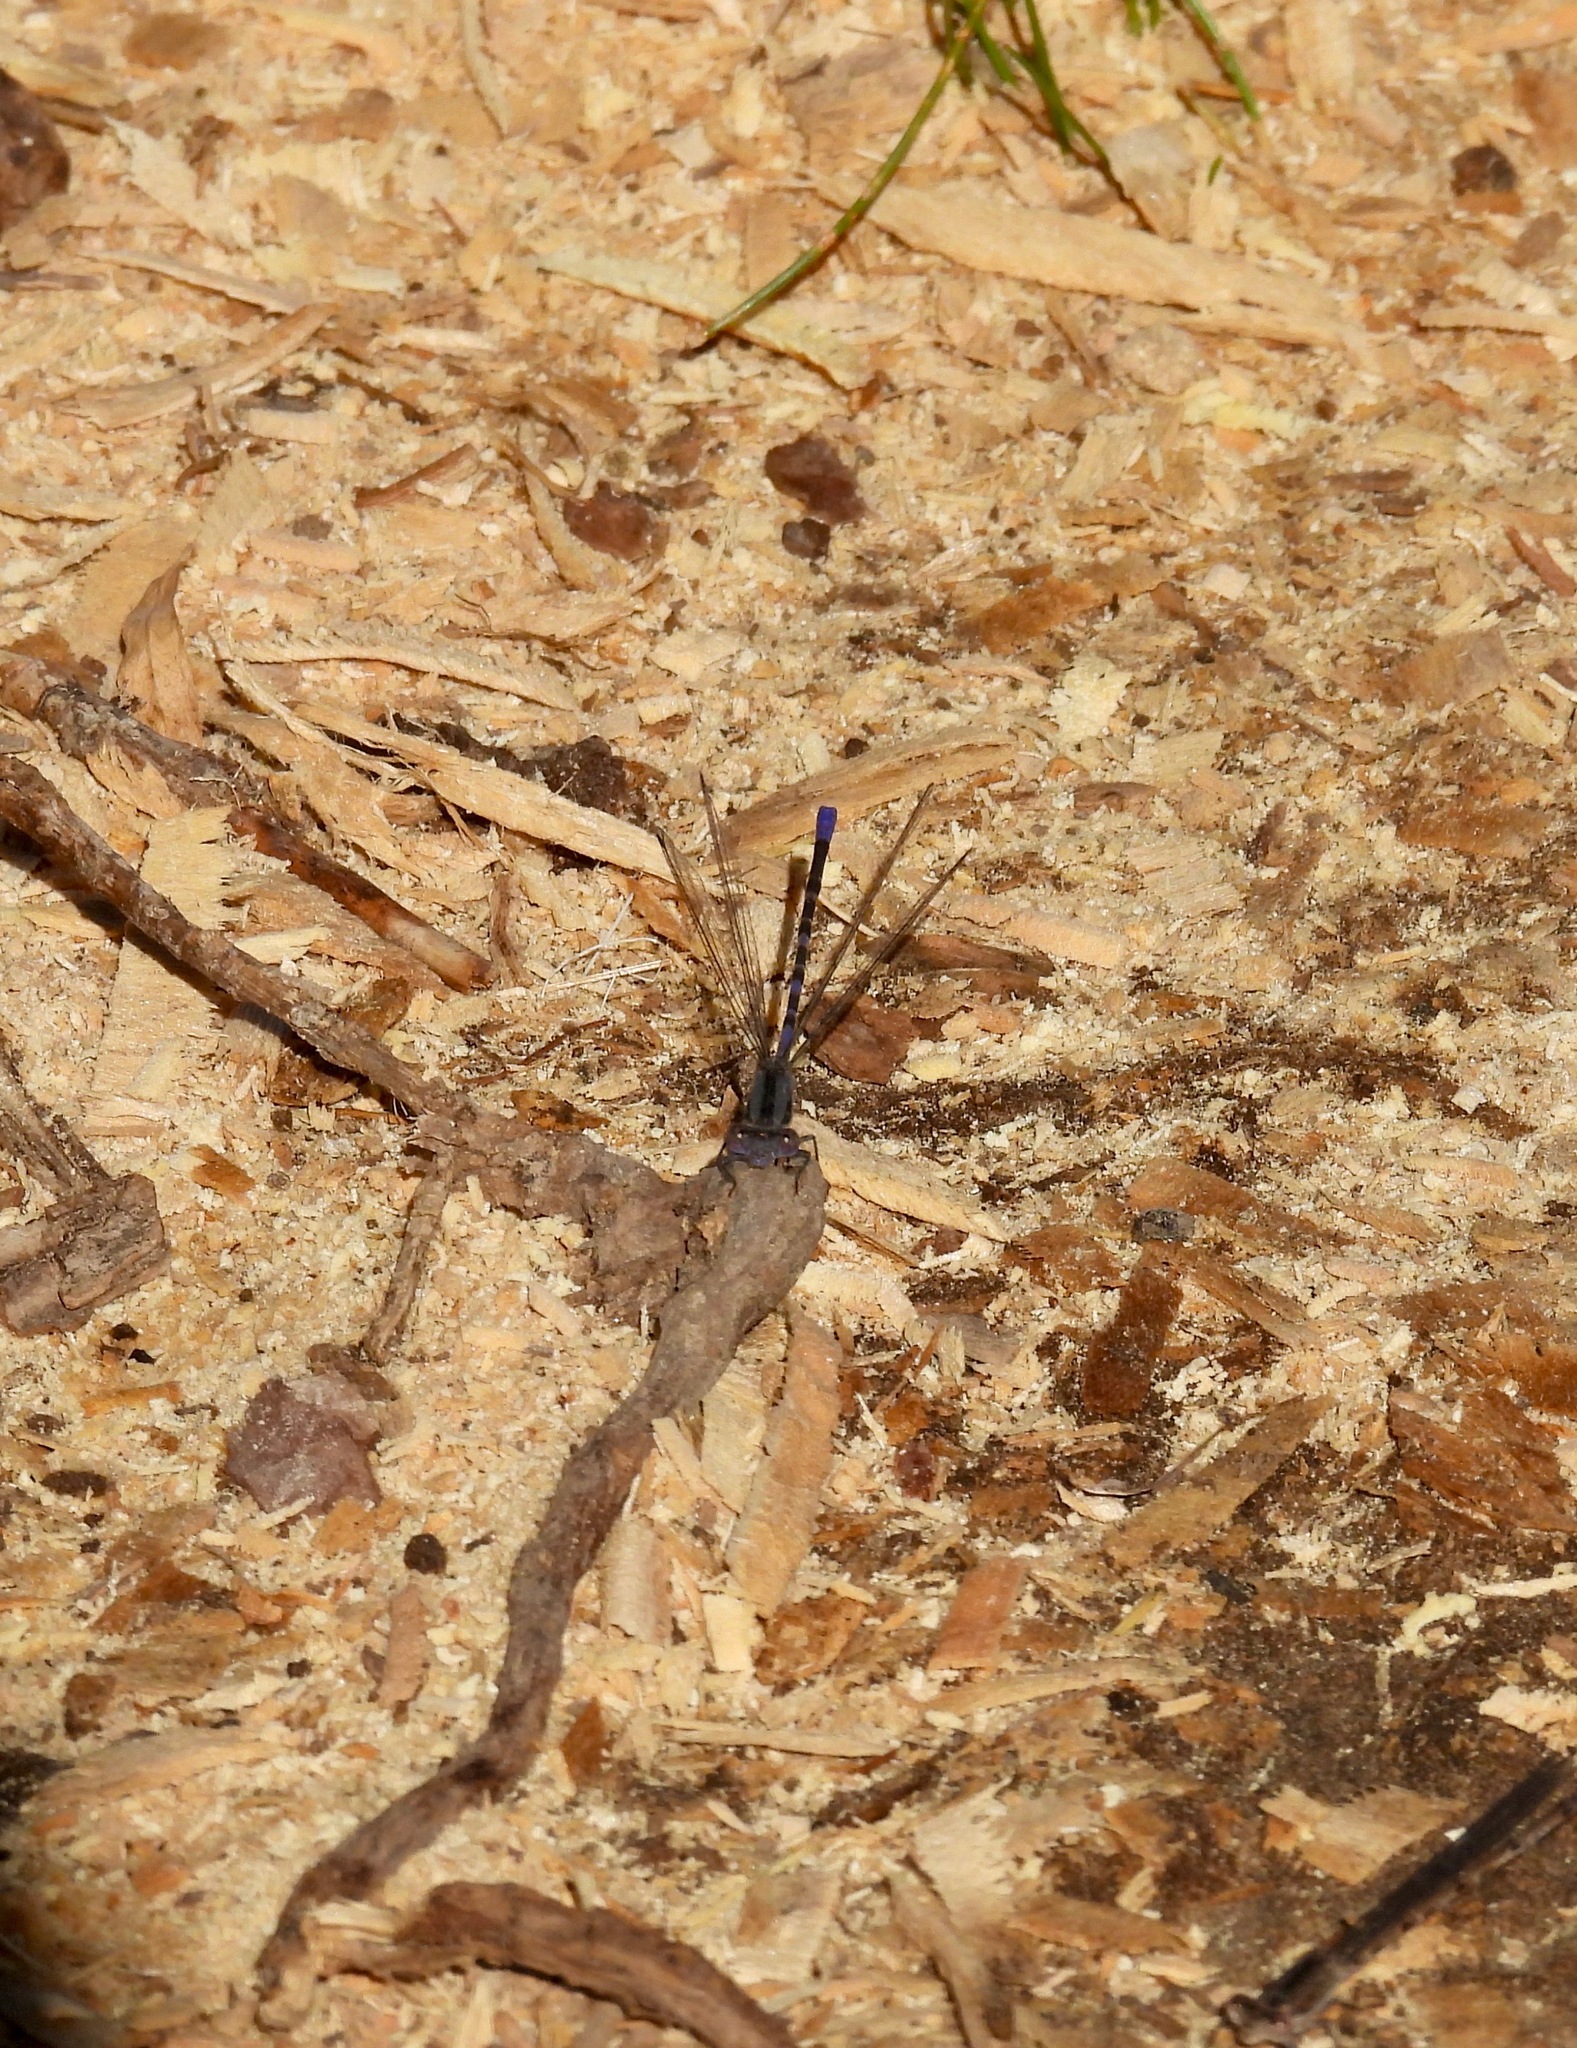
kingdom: Animalia
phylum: Arthropoda
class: Insecta
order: Odonata
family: Coenagrionidae
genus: Argia
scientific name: Argia immunda
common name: Kiowa dancer
